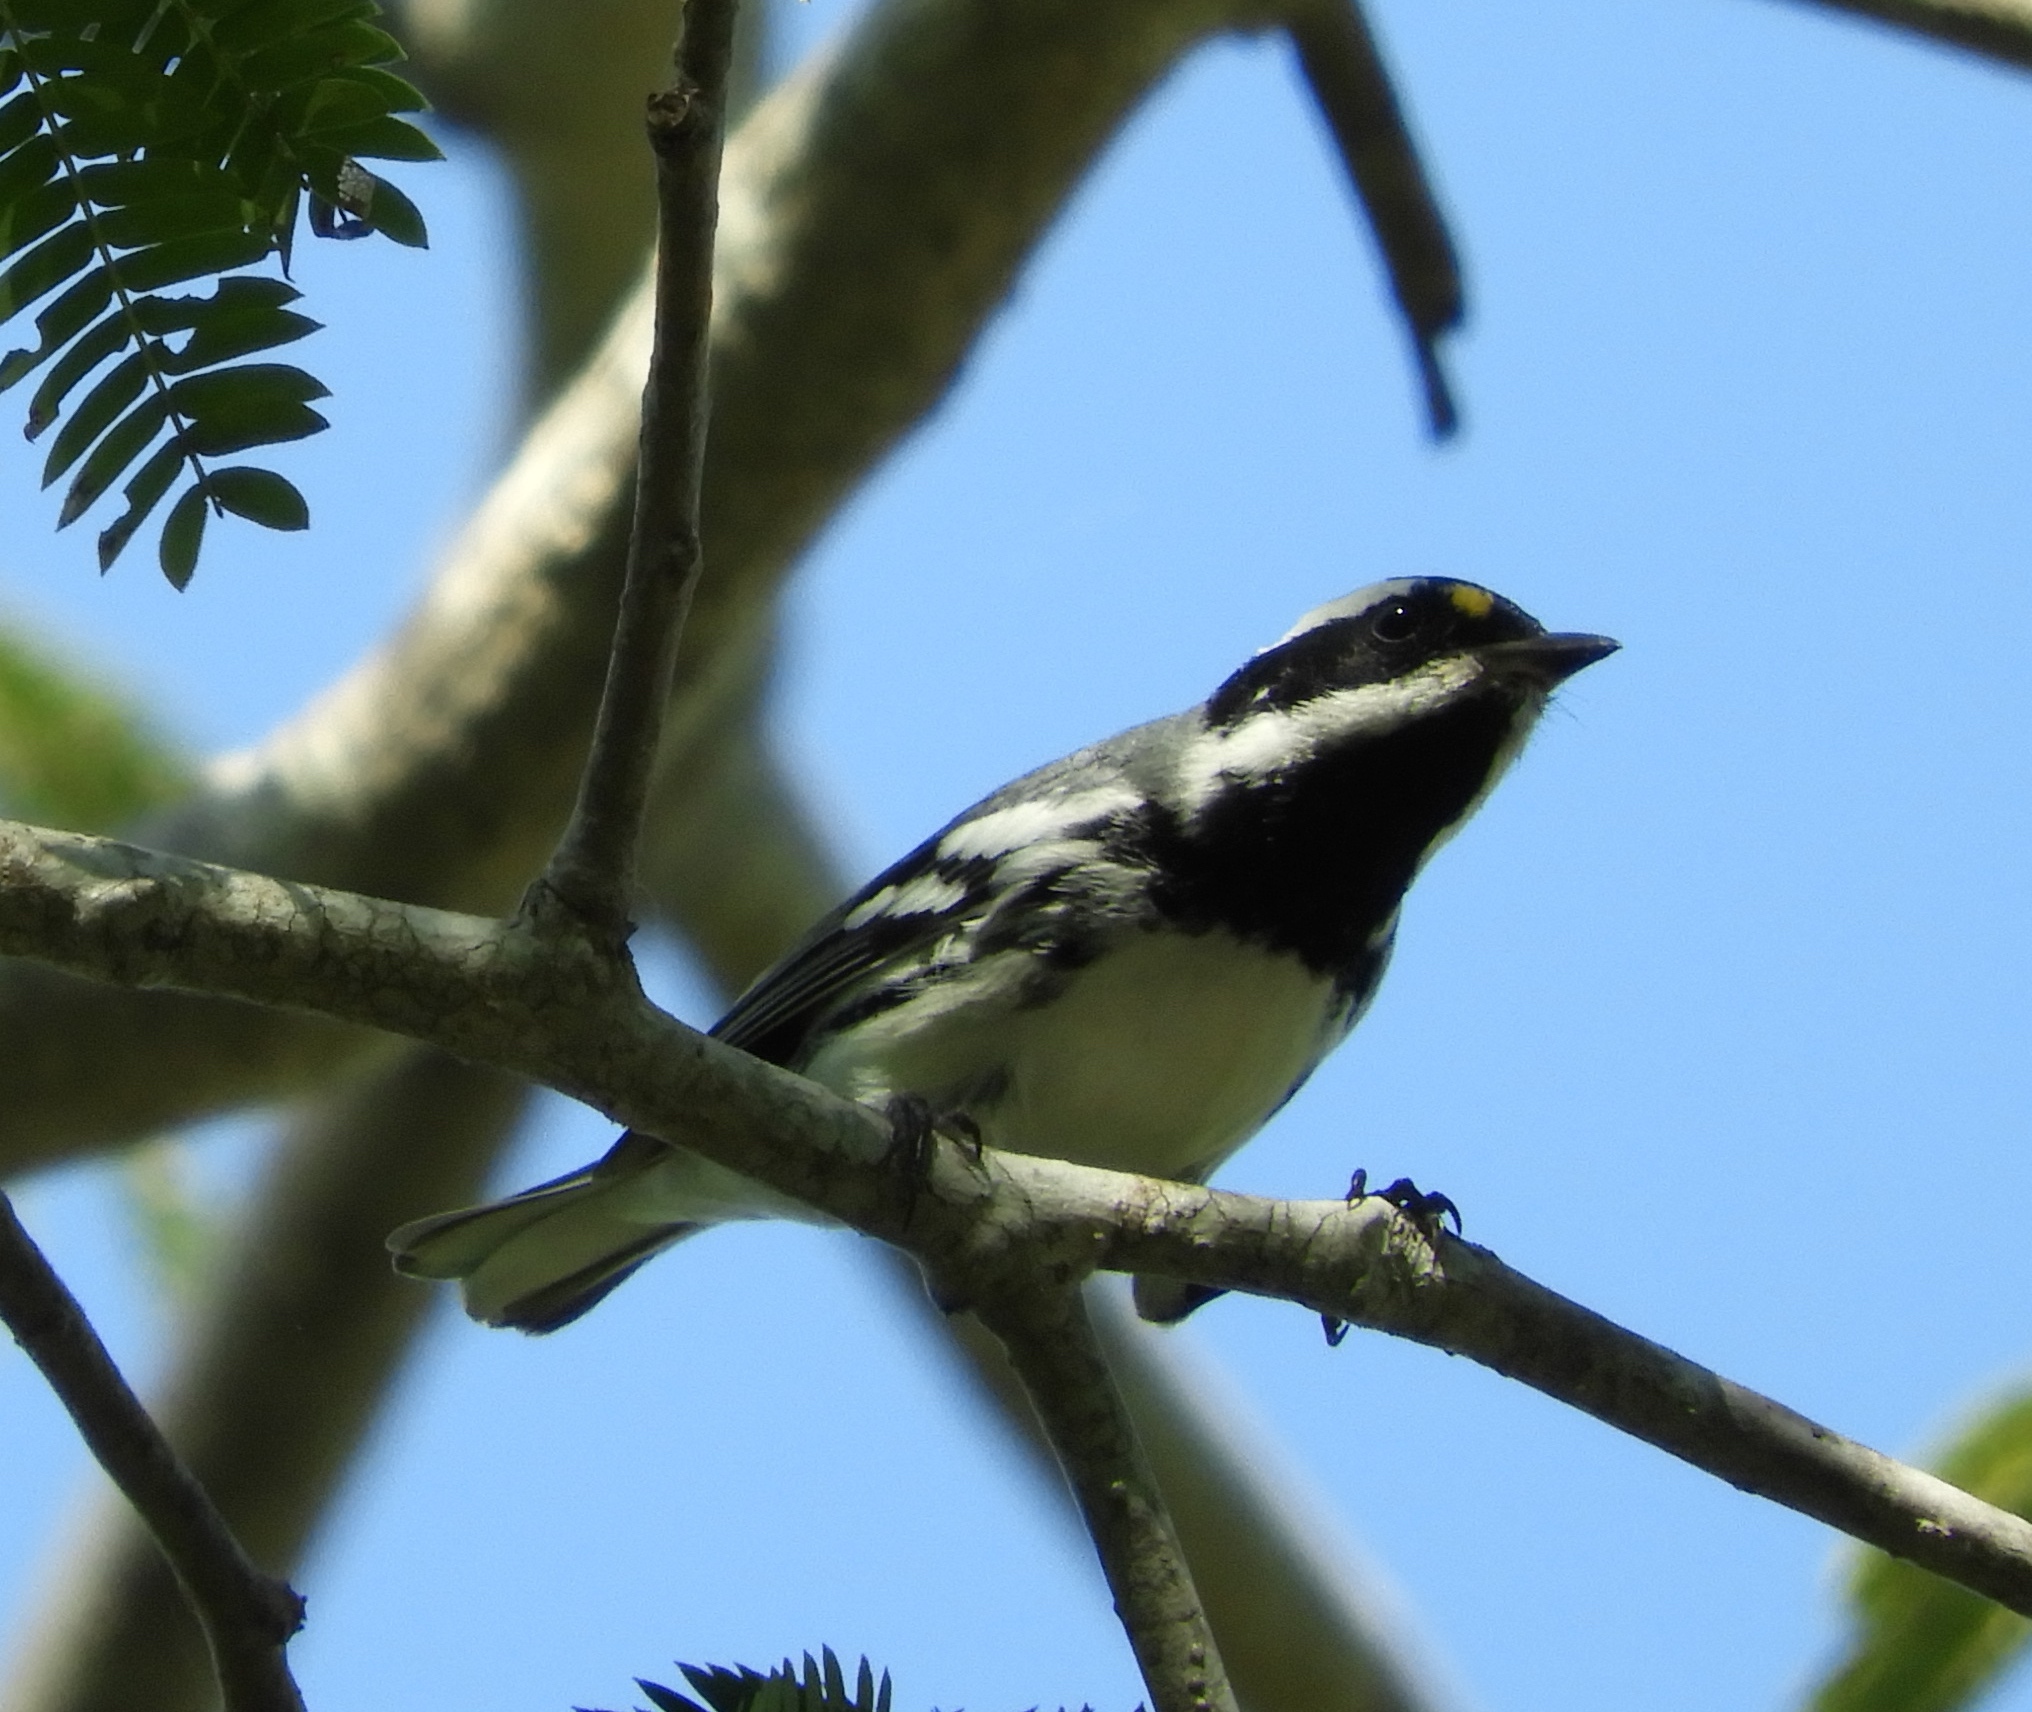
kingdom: Animalia
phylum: Chordata
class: Aves
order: Passeriformes
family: Parulidae
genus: Setophaga
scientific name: Setophaga nigrescens
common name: Black-throated gray warbler
